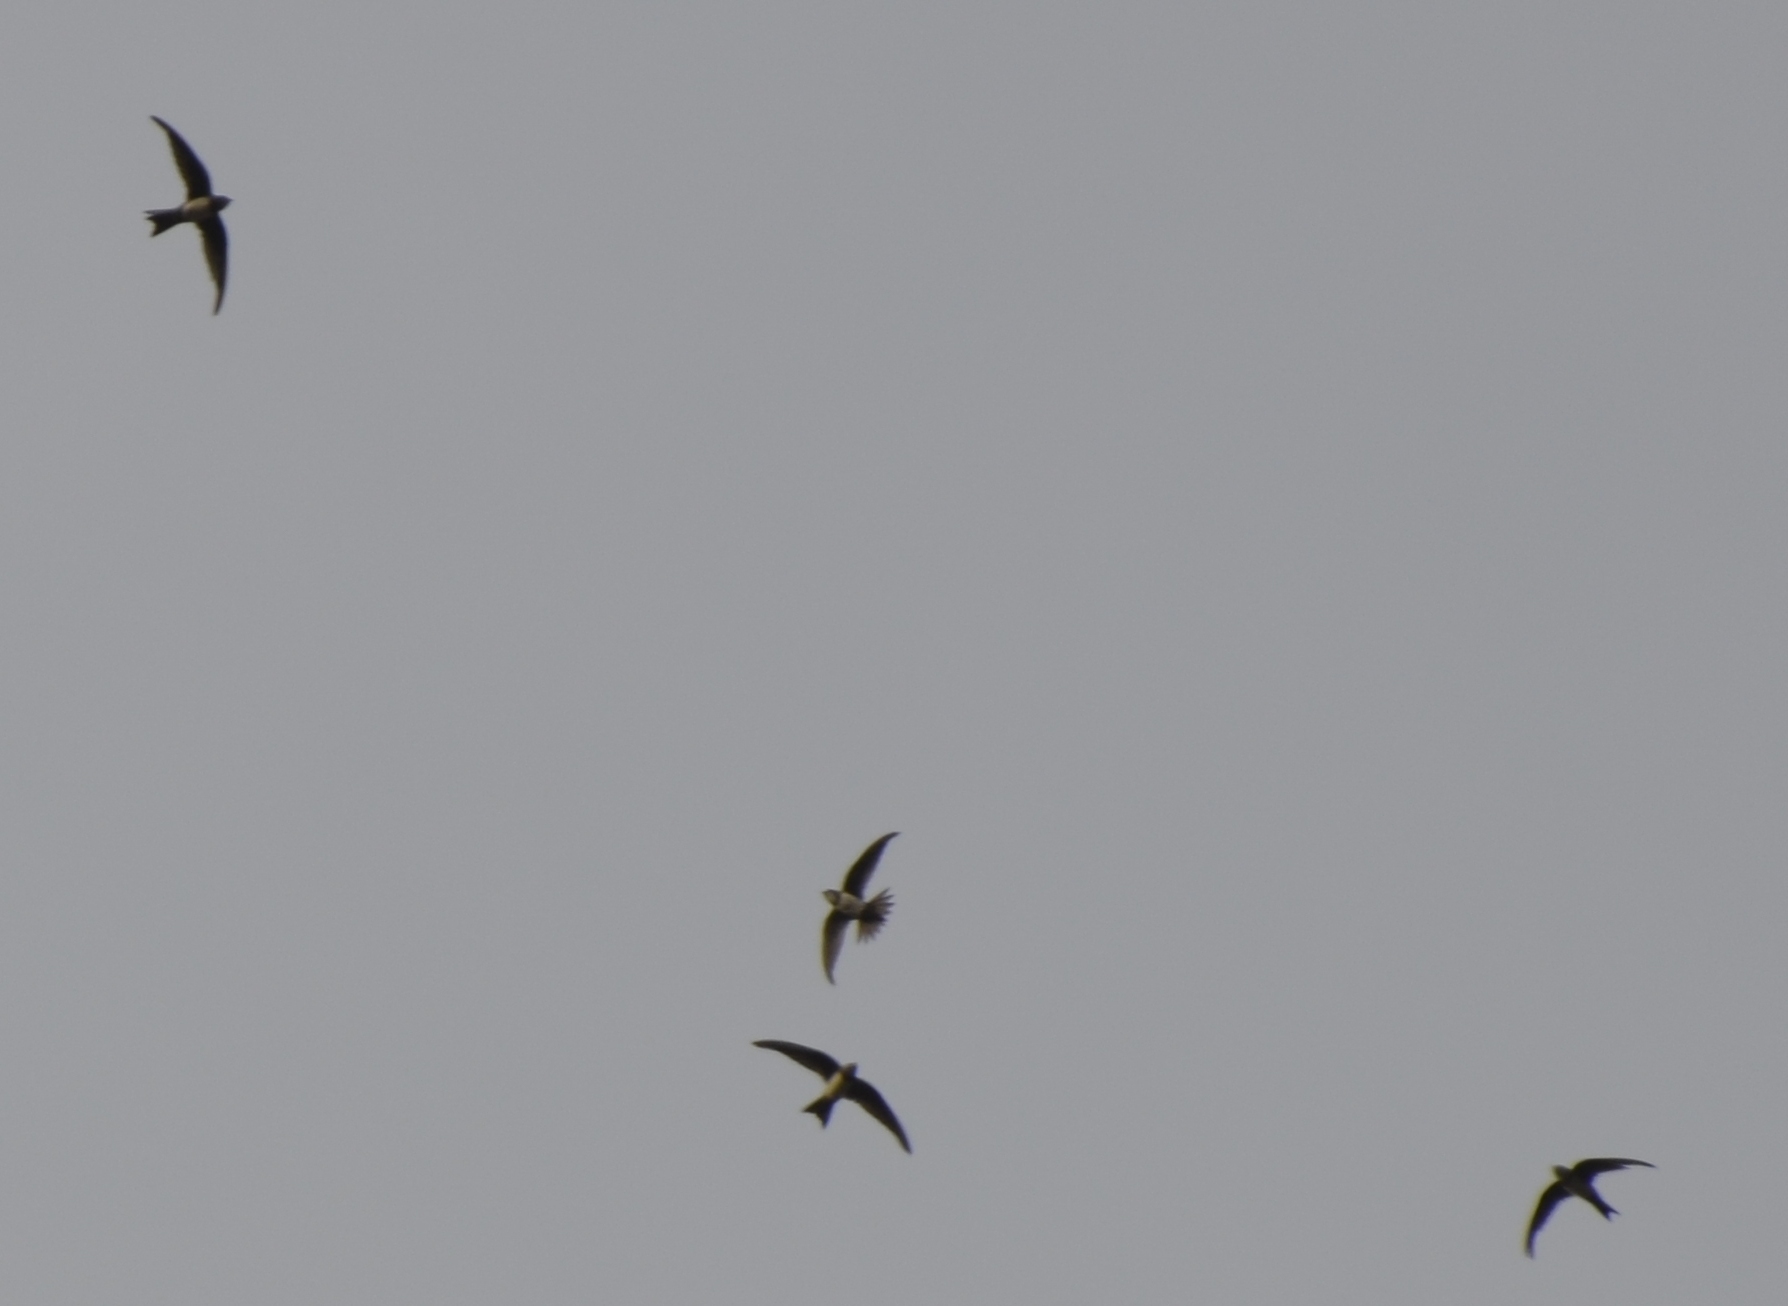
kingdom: Animalia
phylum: Chordata
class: Aves
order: Apodiformes
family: Apodidae
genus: Tachymarptis
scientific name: Tachymarptis melba
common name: Alpine swift
